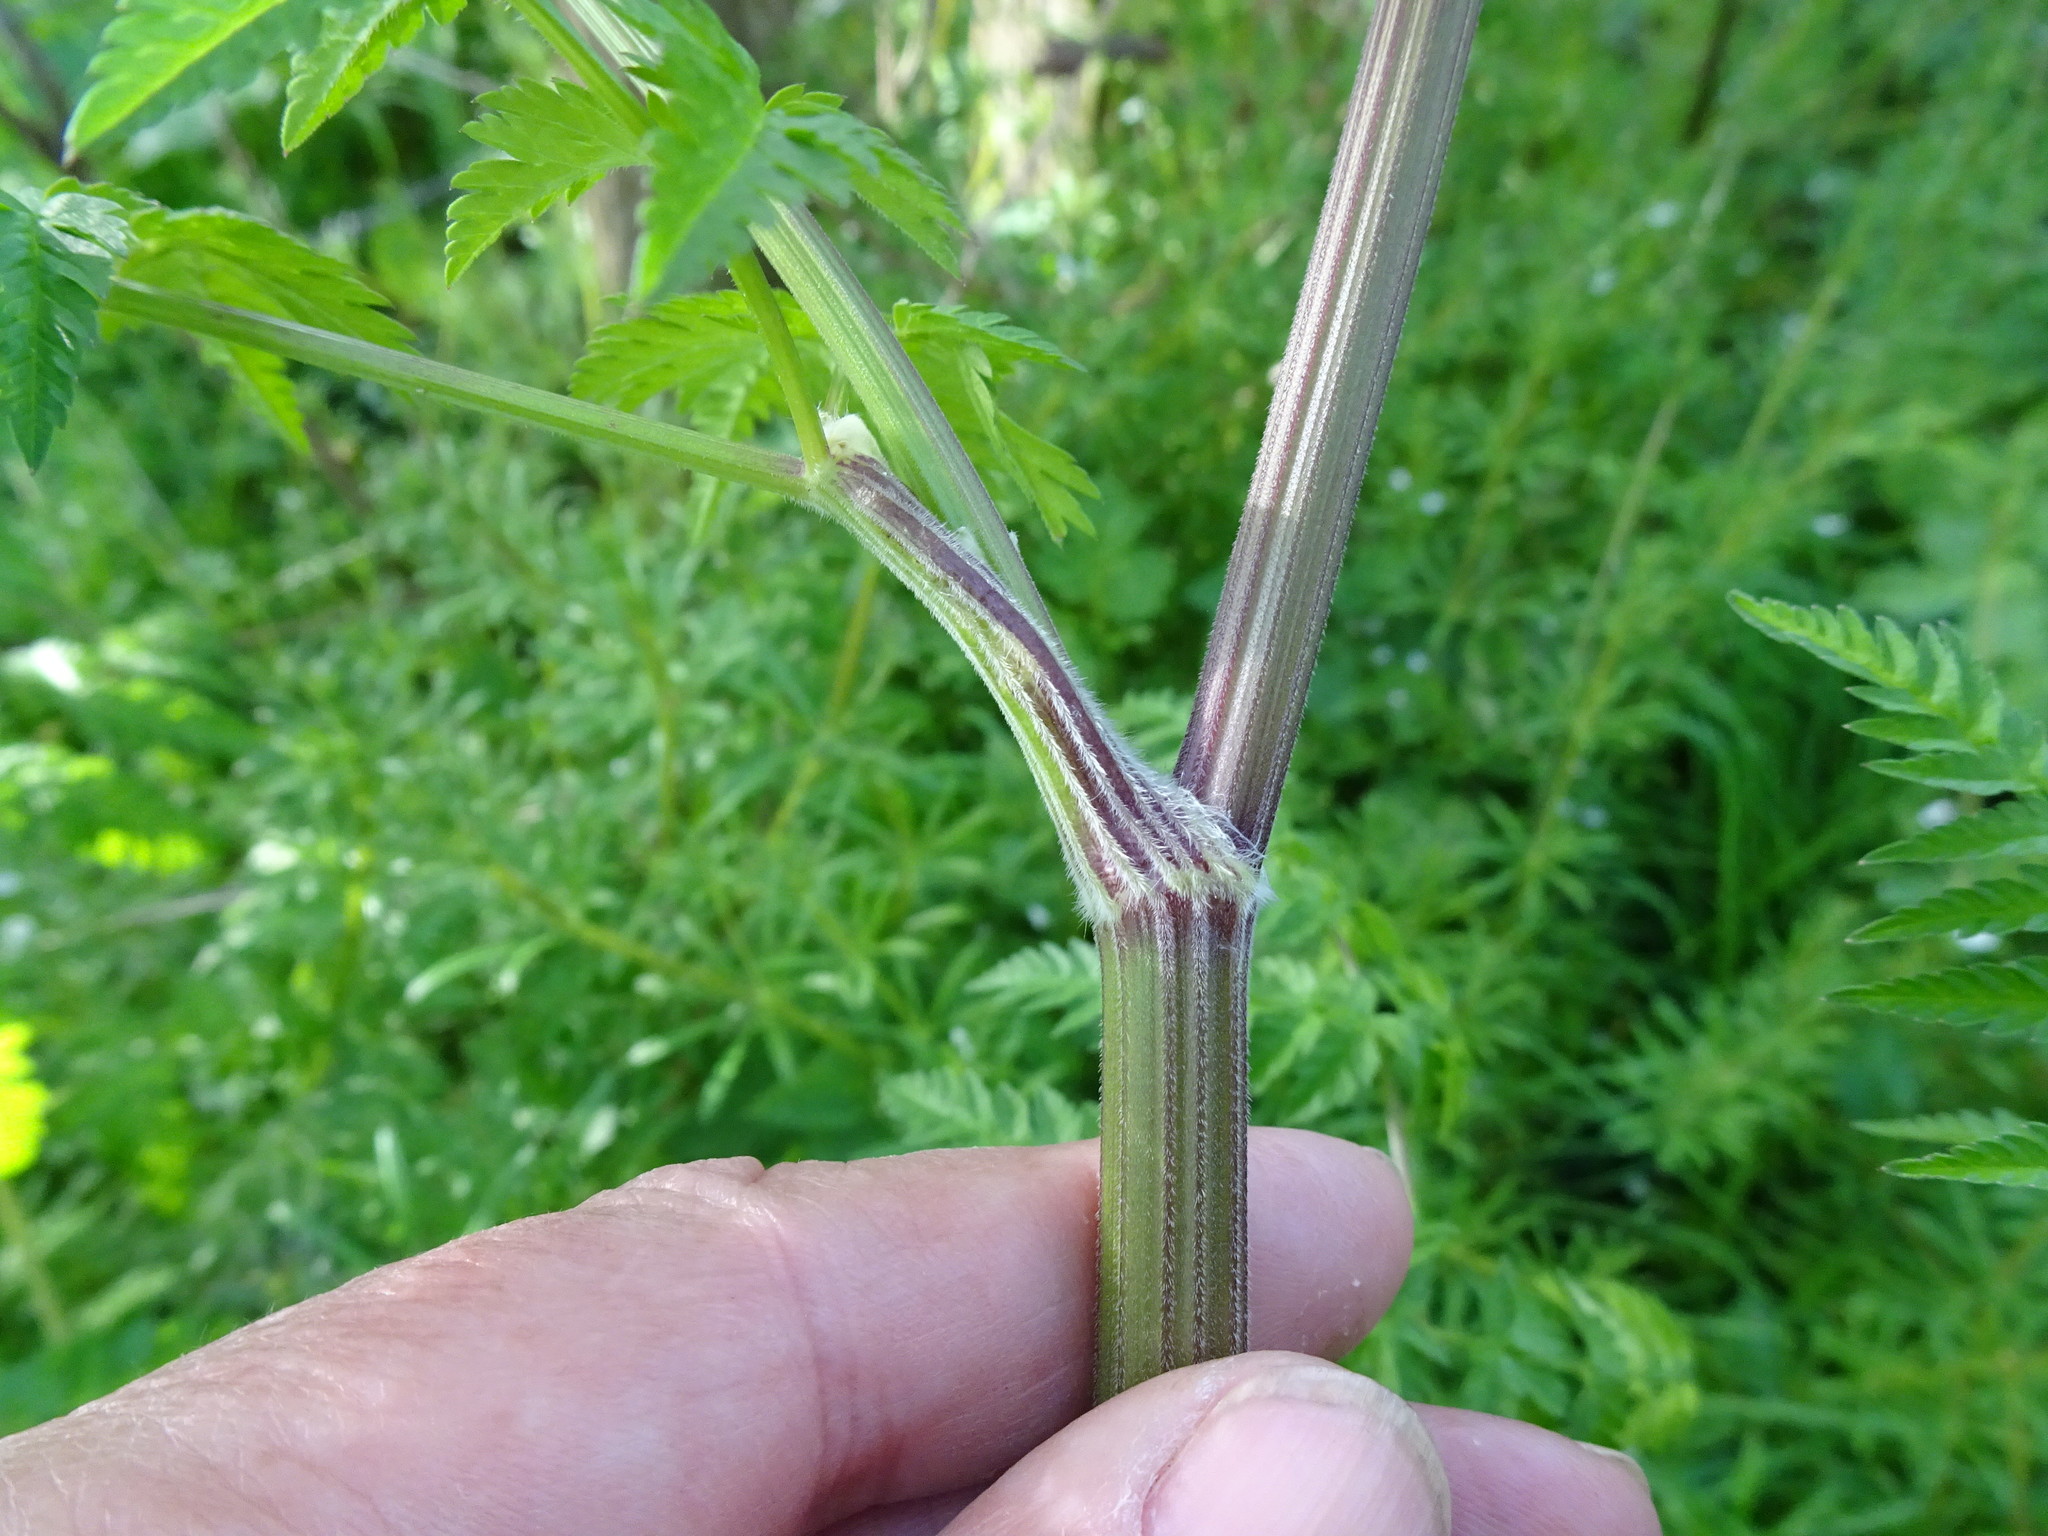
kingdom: Plantae
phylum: Tracheophyta
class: Magnoliopsida
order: Apiales
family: Apiaceae
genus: Anthriscus
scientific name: Anthriscus sylvestris
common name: Cow parsley
